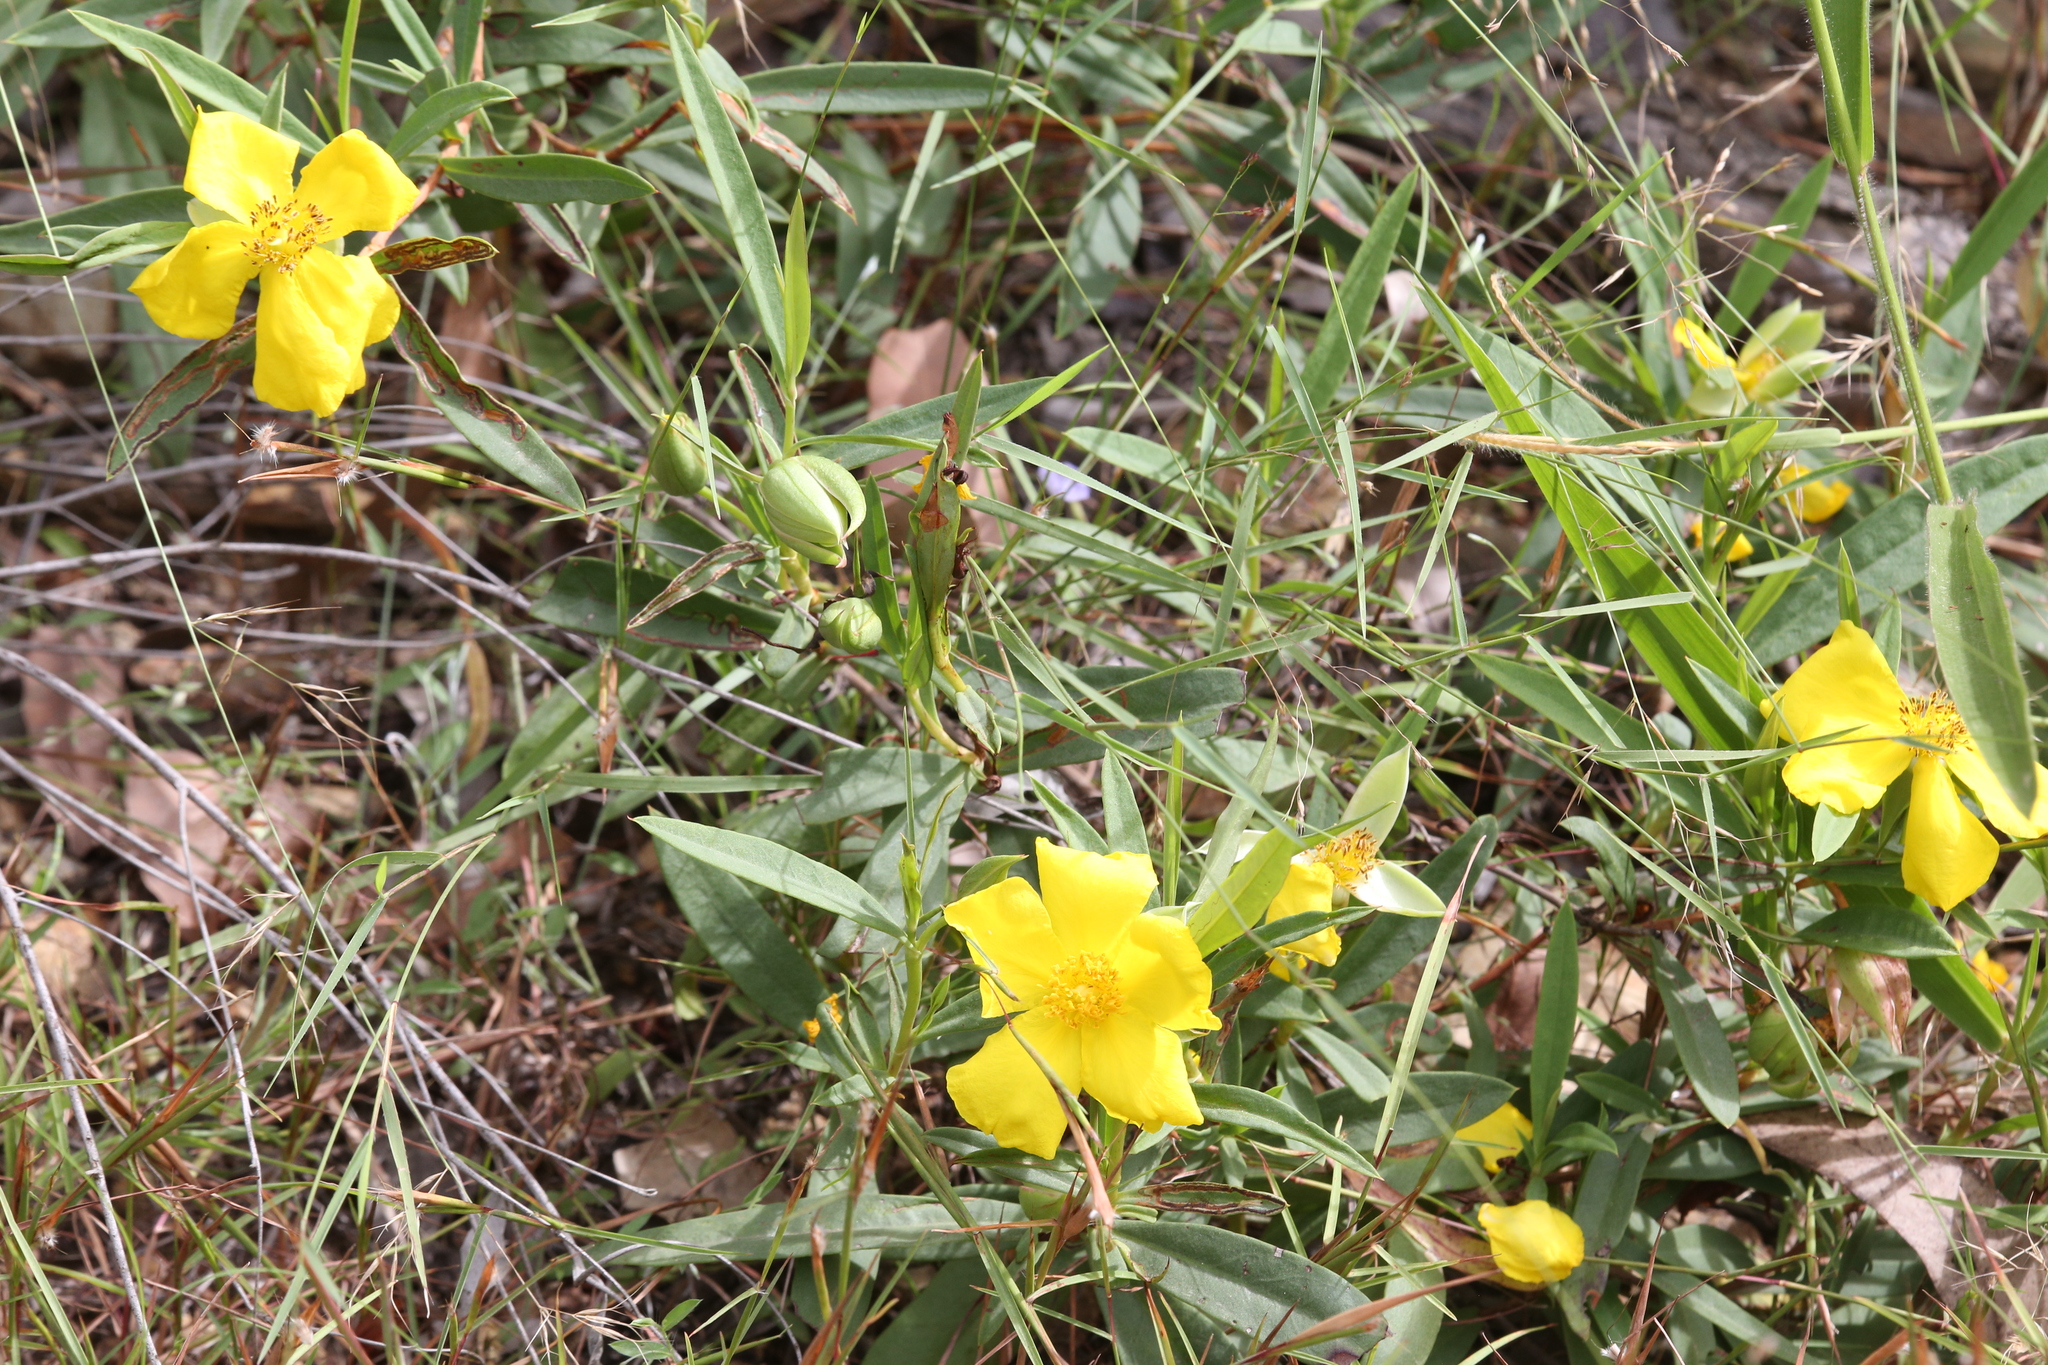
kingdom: Plantae
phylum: Tracheophyta
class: Magnoliopsida
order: Dilleniales
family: Dilleniaceae
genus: Hibbertia
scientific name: Hibbertia longifolia
